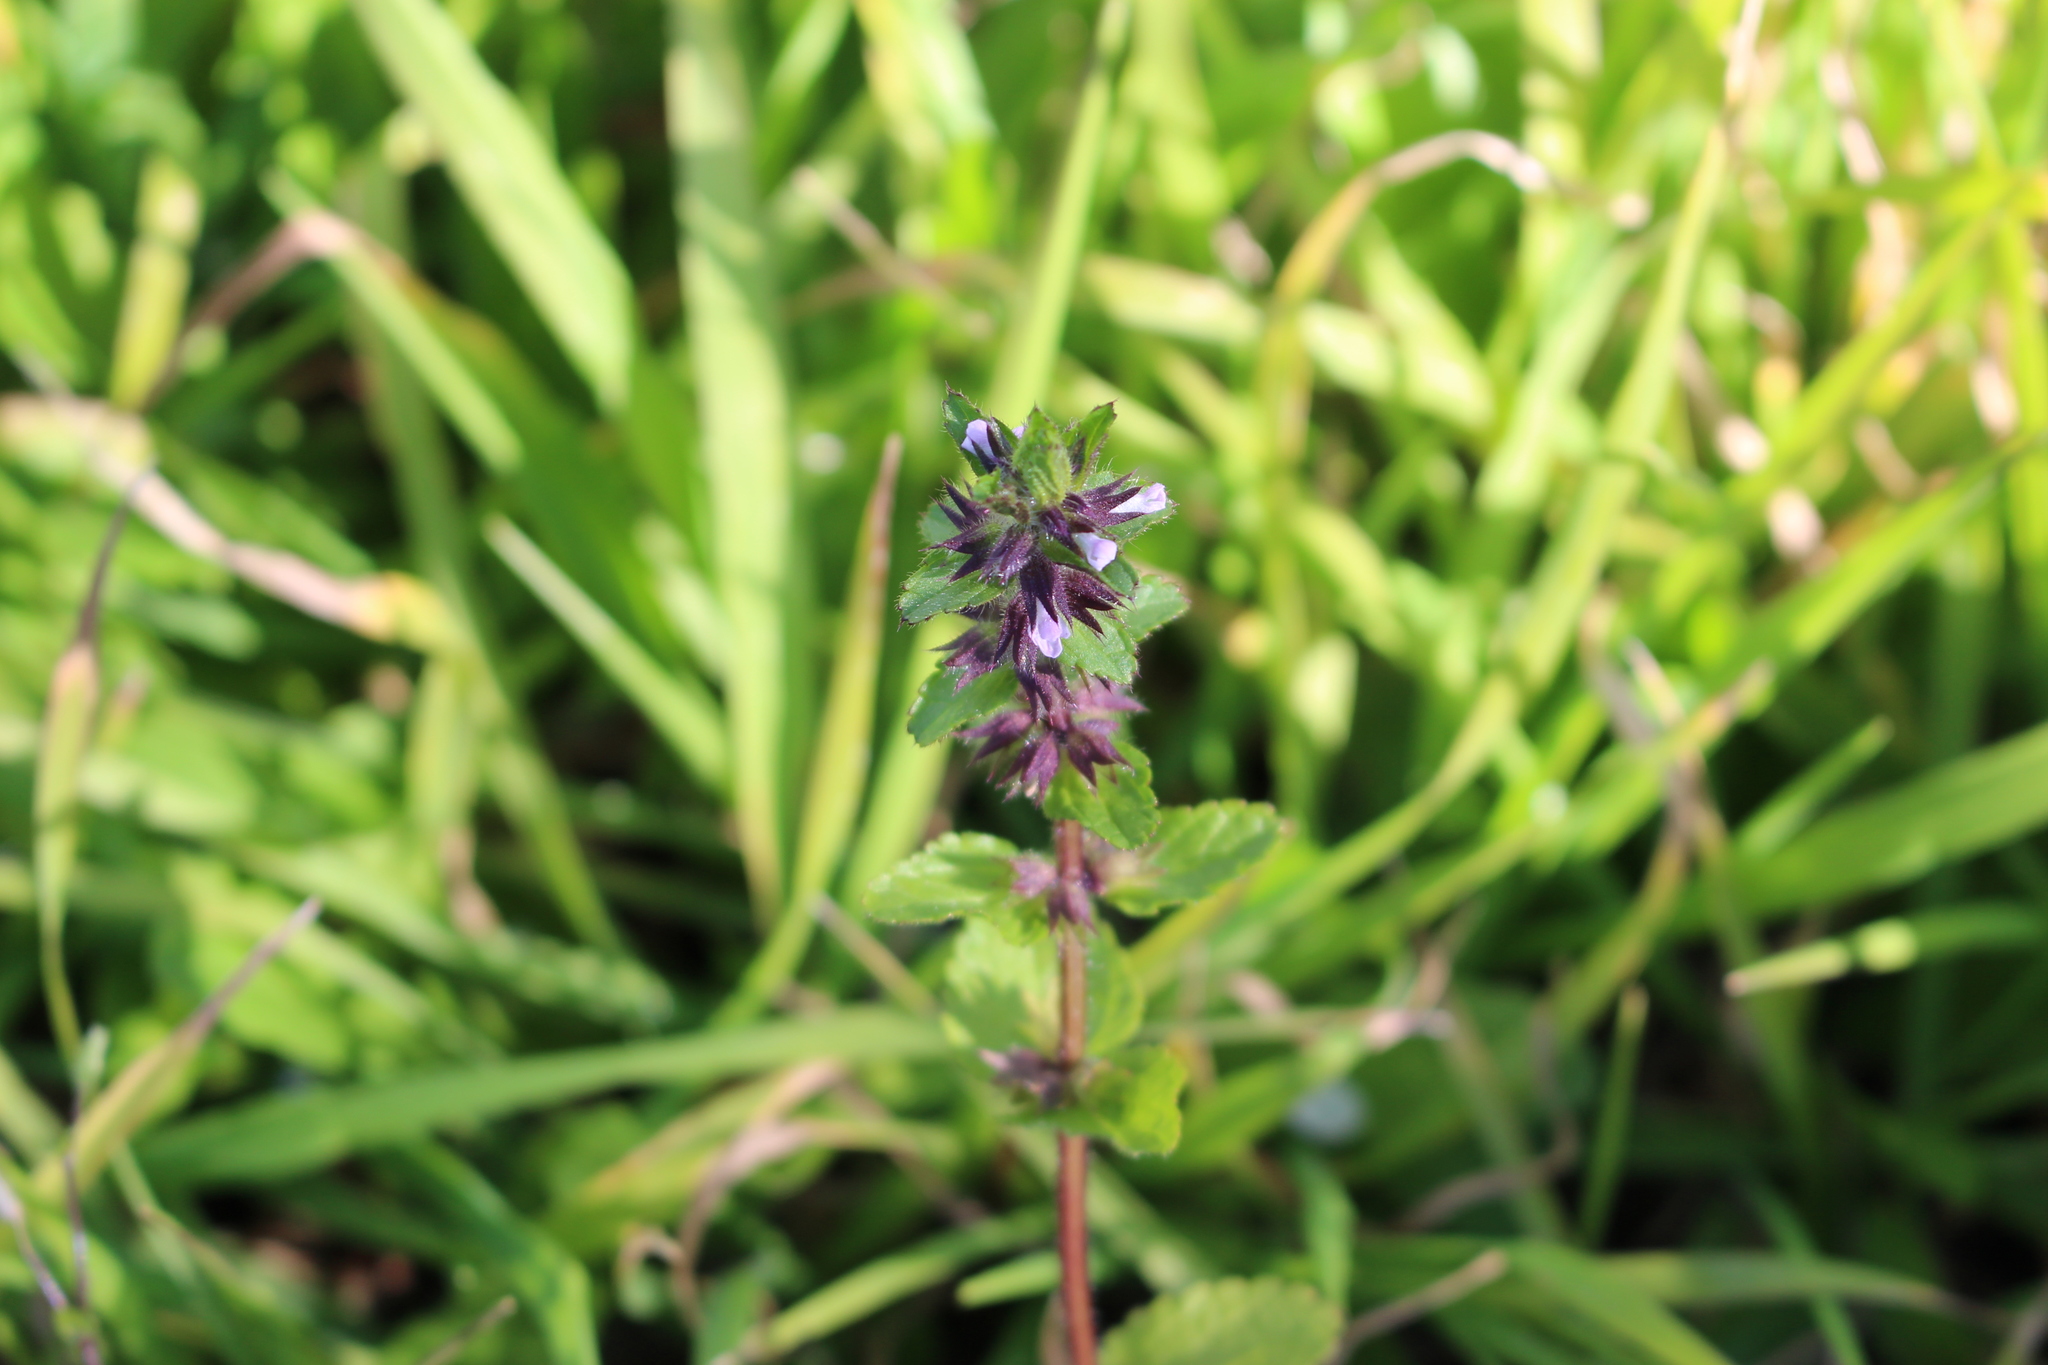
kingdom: Plantae
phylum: Tracheophyta
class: Magnoliopsida
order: Lamiales
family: Lamiaceae
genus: Stachys
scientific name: Stachys arvensis
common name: Field woundwort
